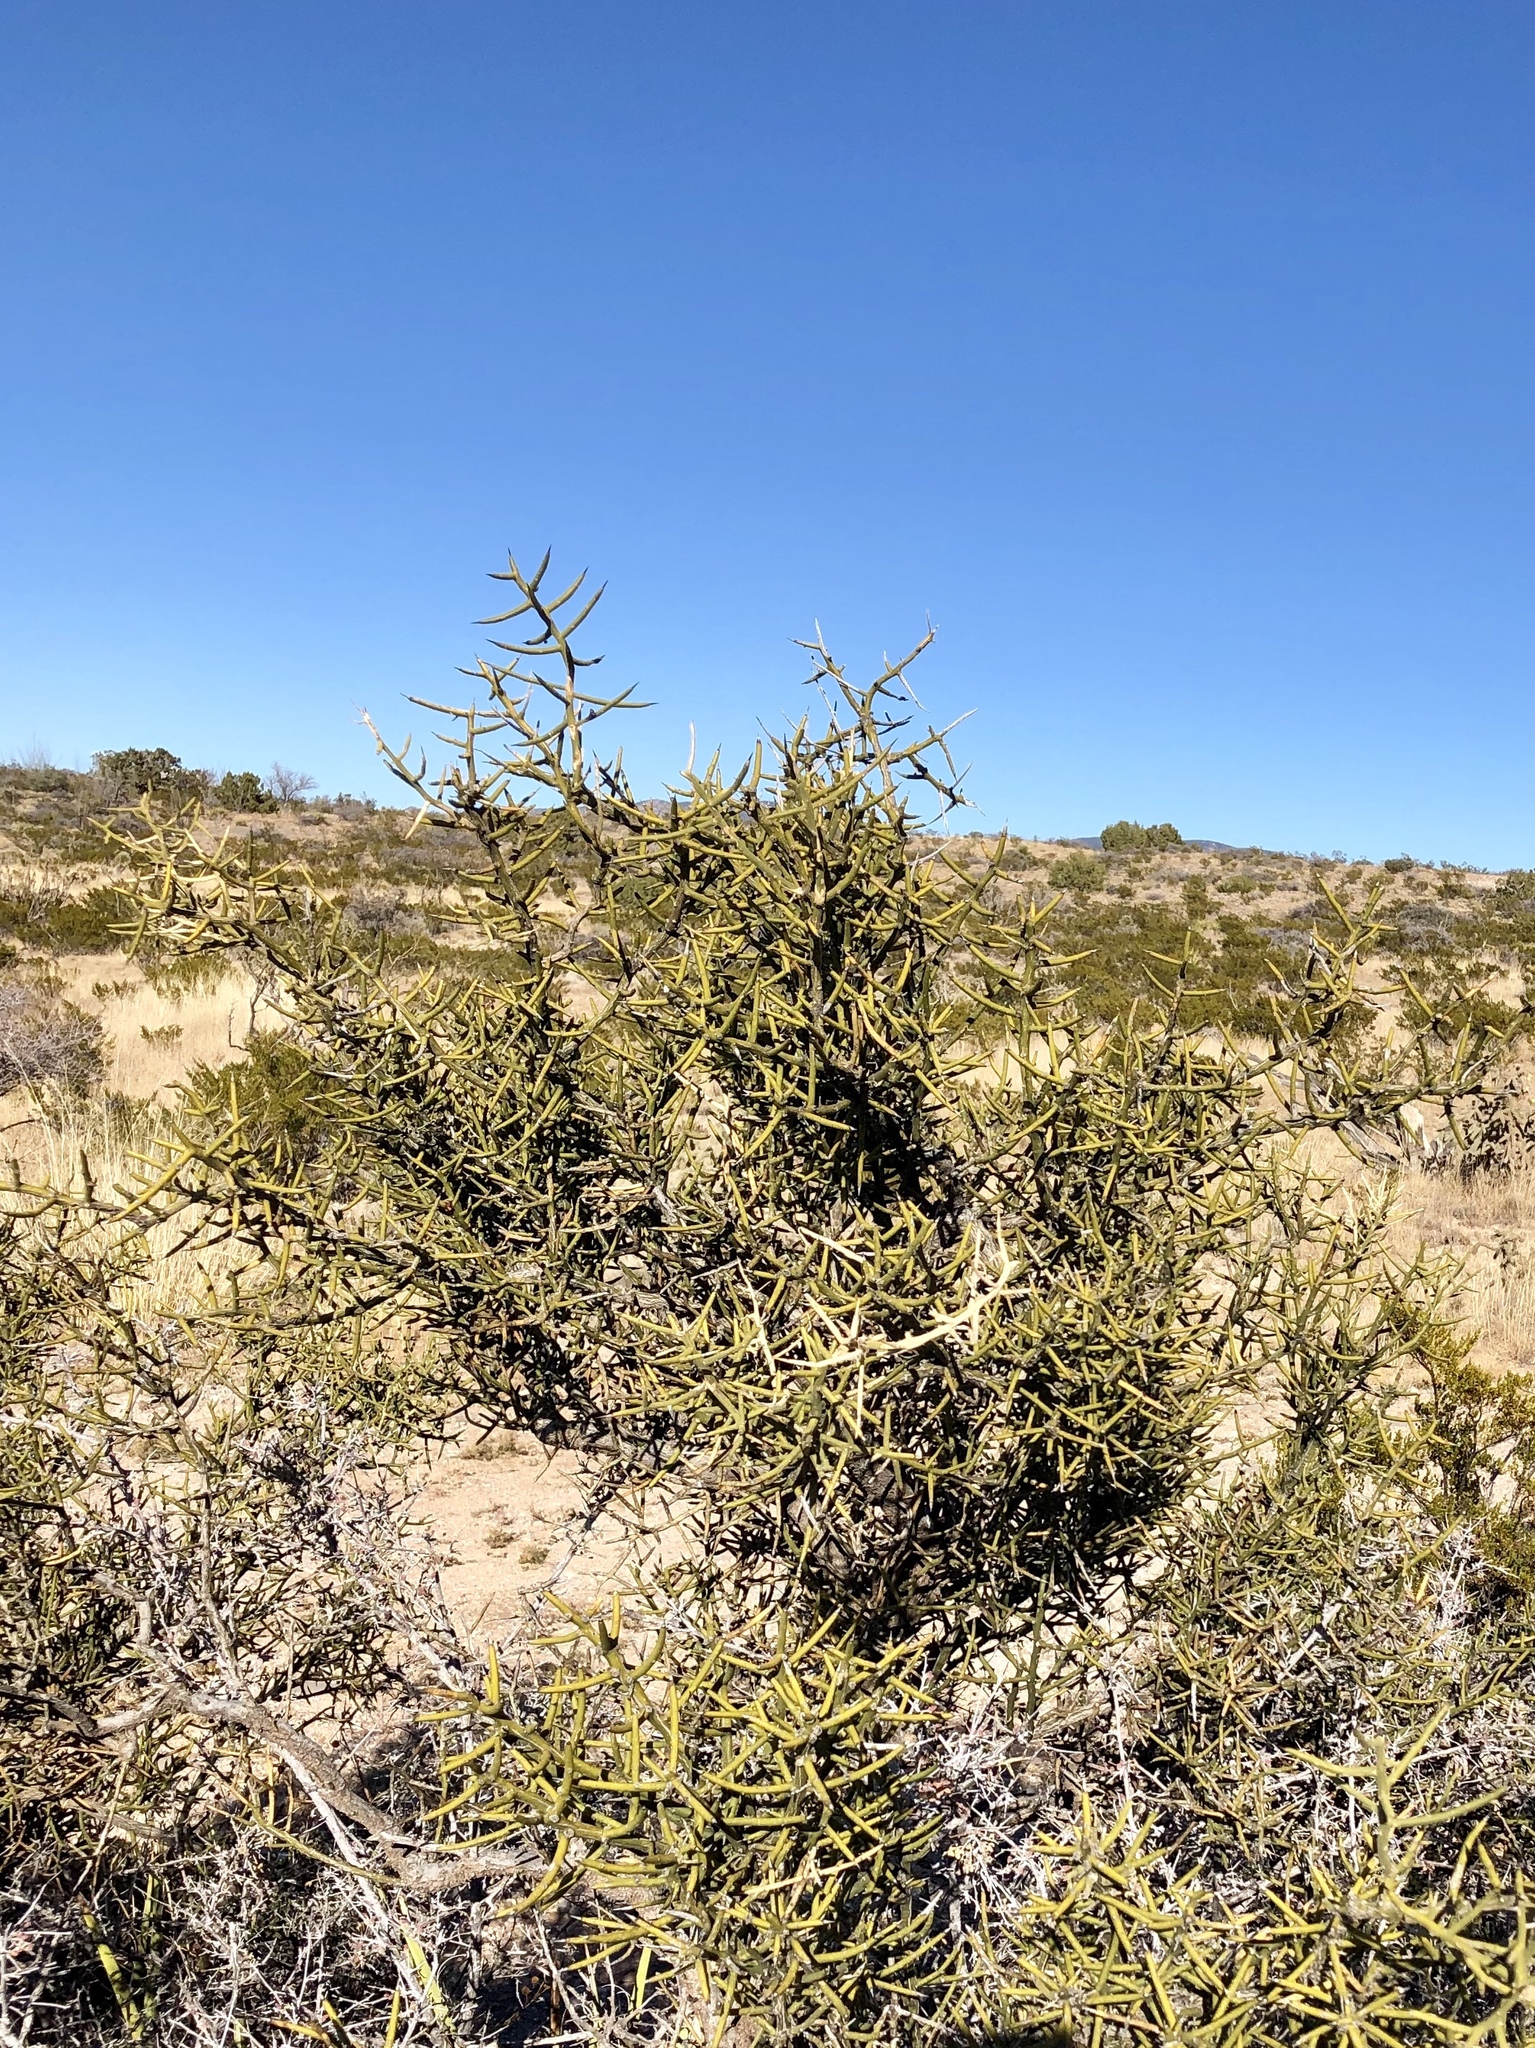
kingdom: Plantae
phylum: Tracheophyta
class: Magnoliopsida
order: Brassicales
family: Koeberliniaceae
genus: Koeberlinia
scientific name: Koeberlinia spinosa
